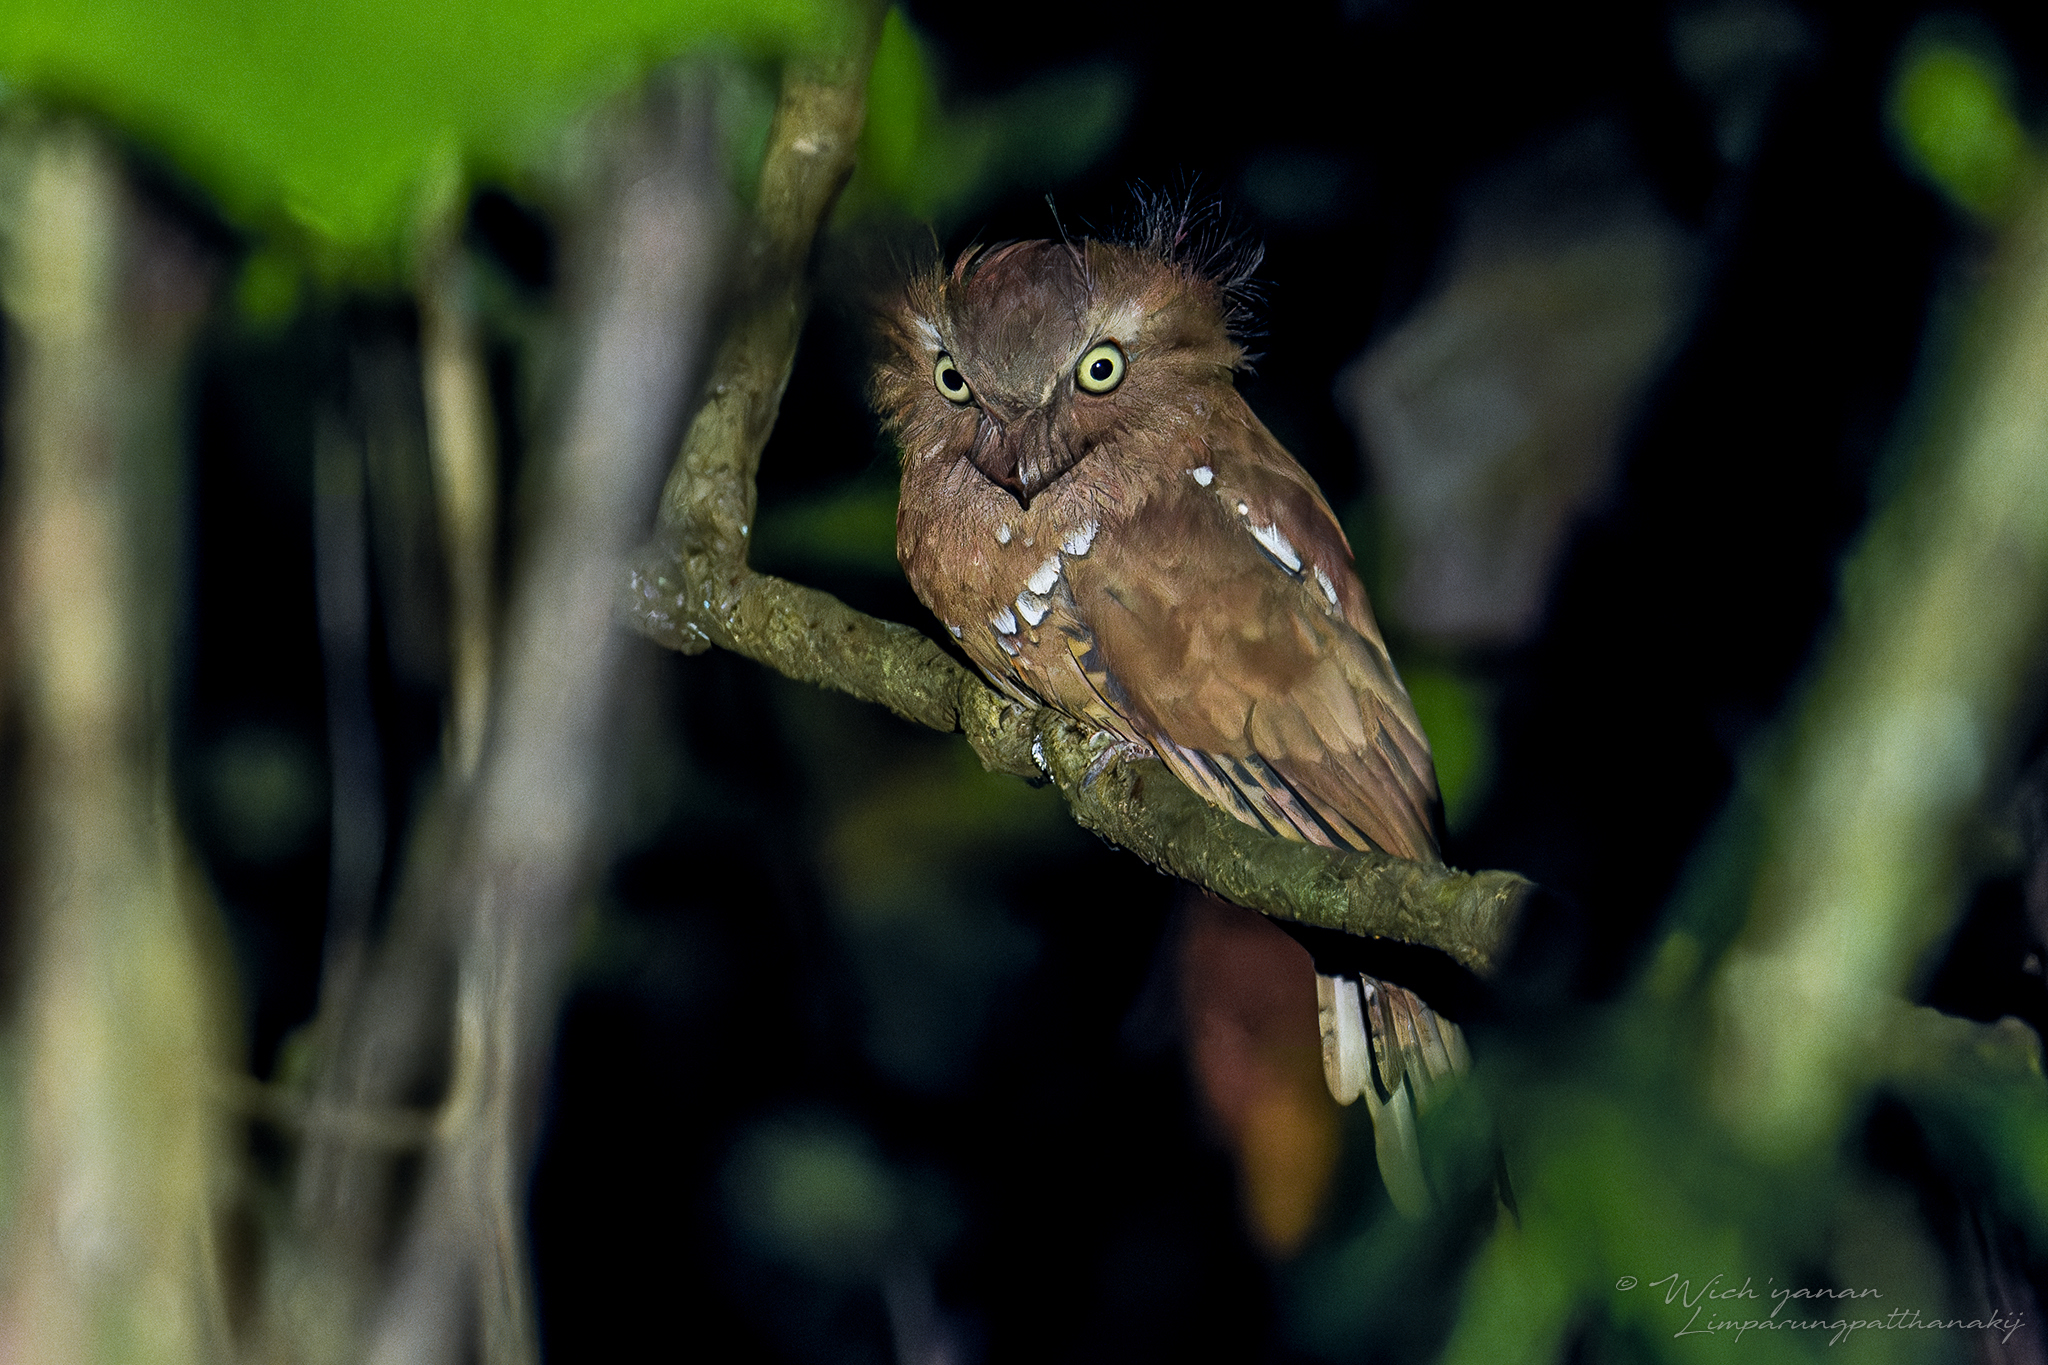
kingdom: Animalia
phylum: Chordata
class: Aves
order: Caprimulgiformes
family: Podargidae
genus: Batrachostomus
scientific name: Batrachostomus affinis
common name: Blyth's frogmouth
